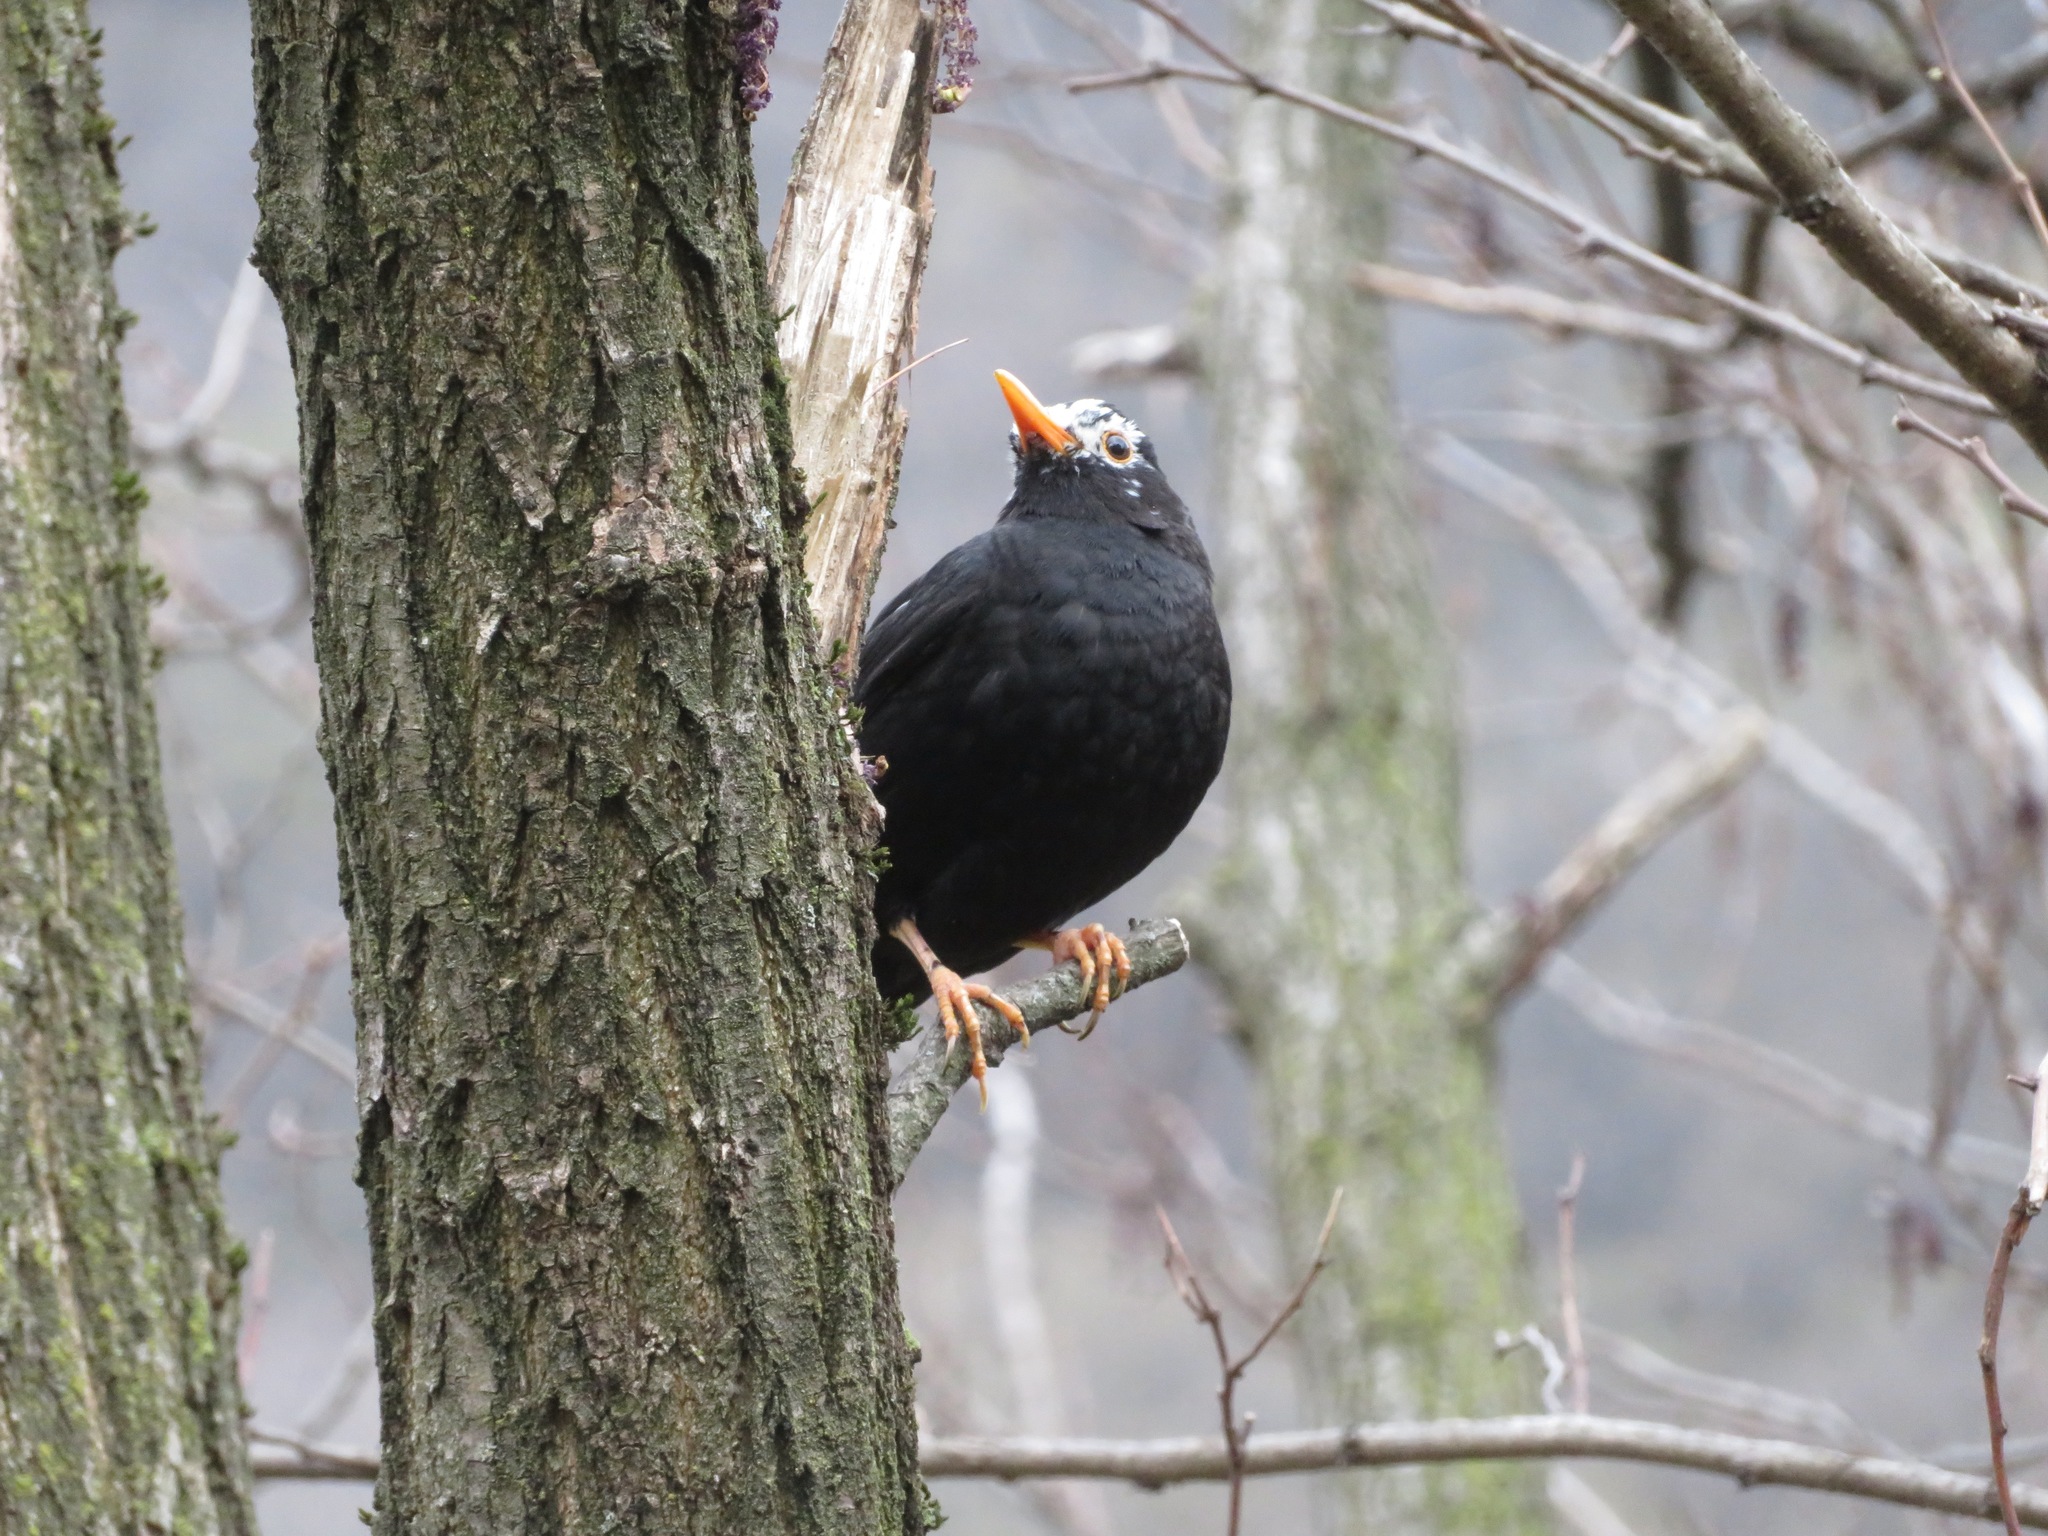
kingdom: Animalia
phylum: Chordata
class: Aves
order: Passeriformes
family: Turdidae
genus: Turdus
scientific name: Turdus merula
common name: Common blackbird
